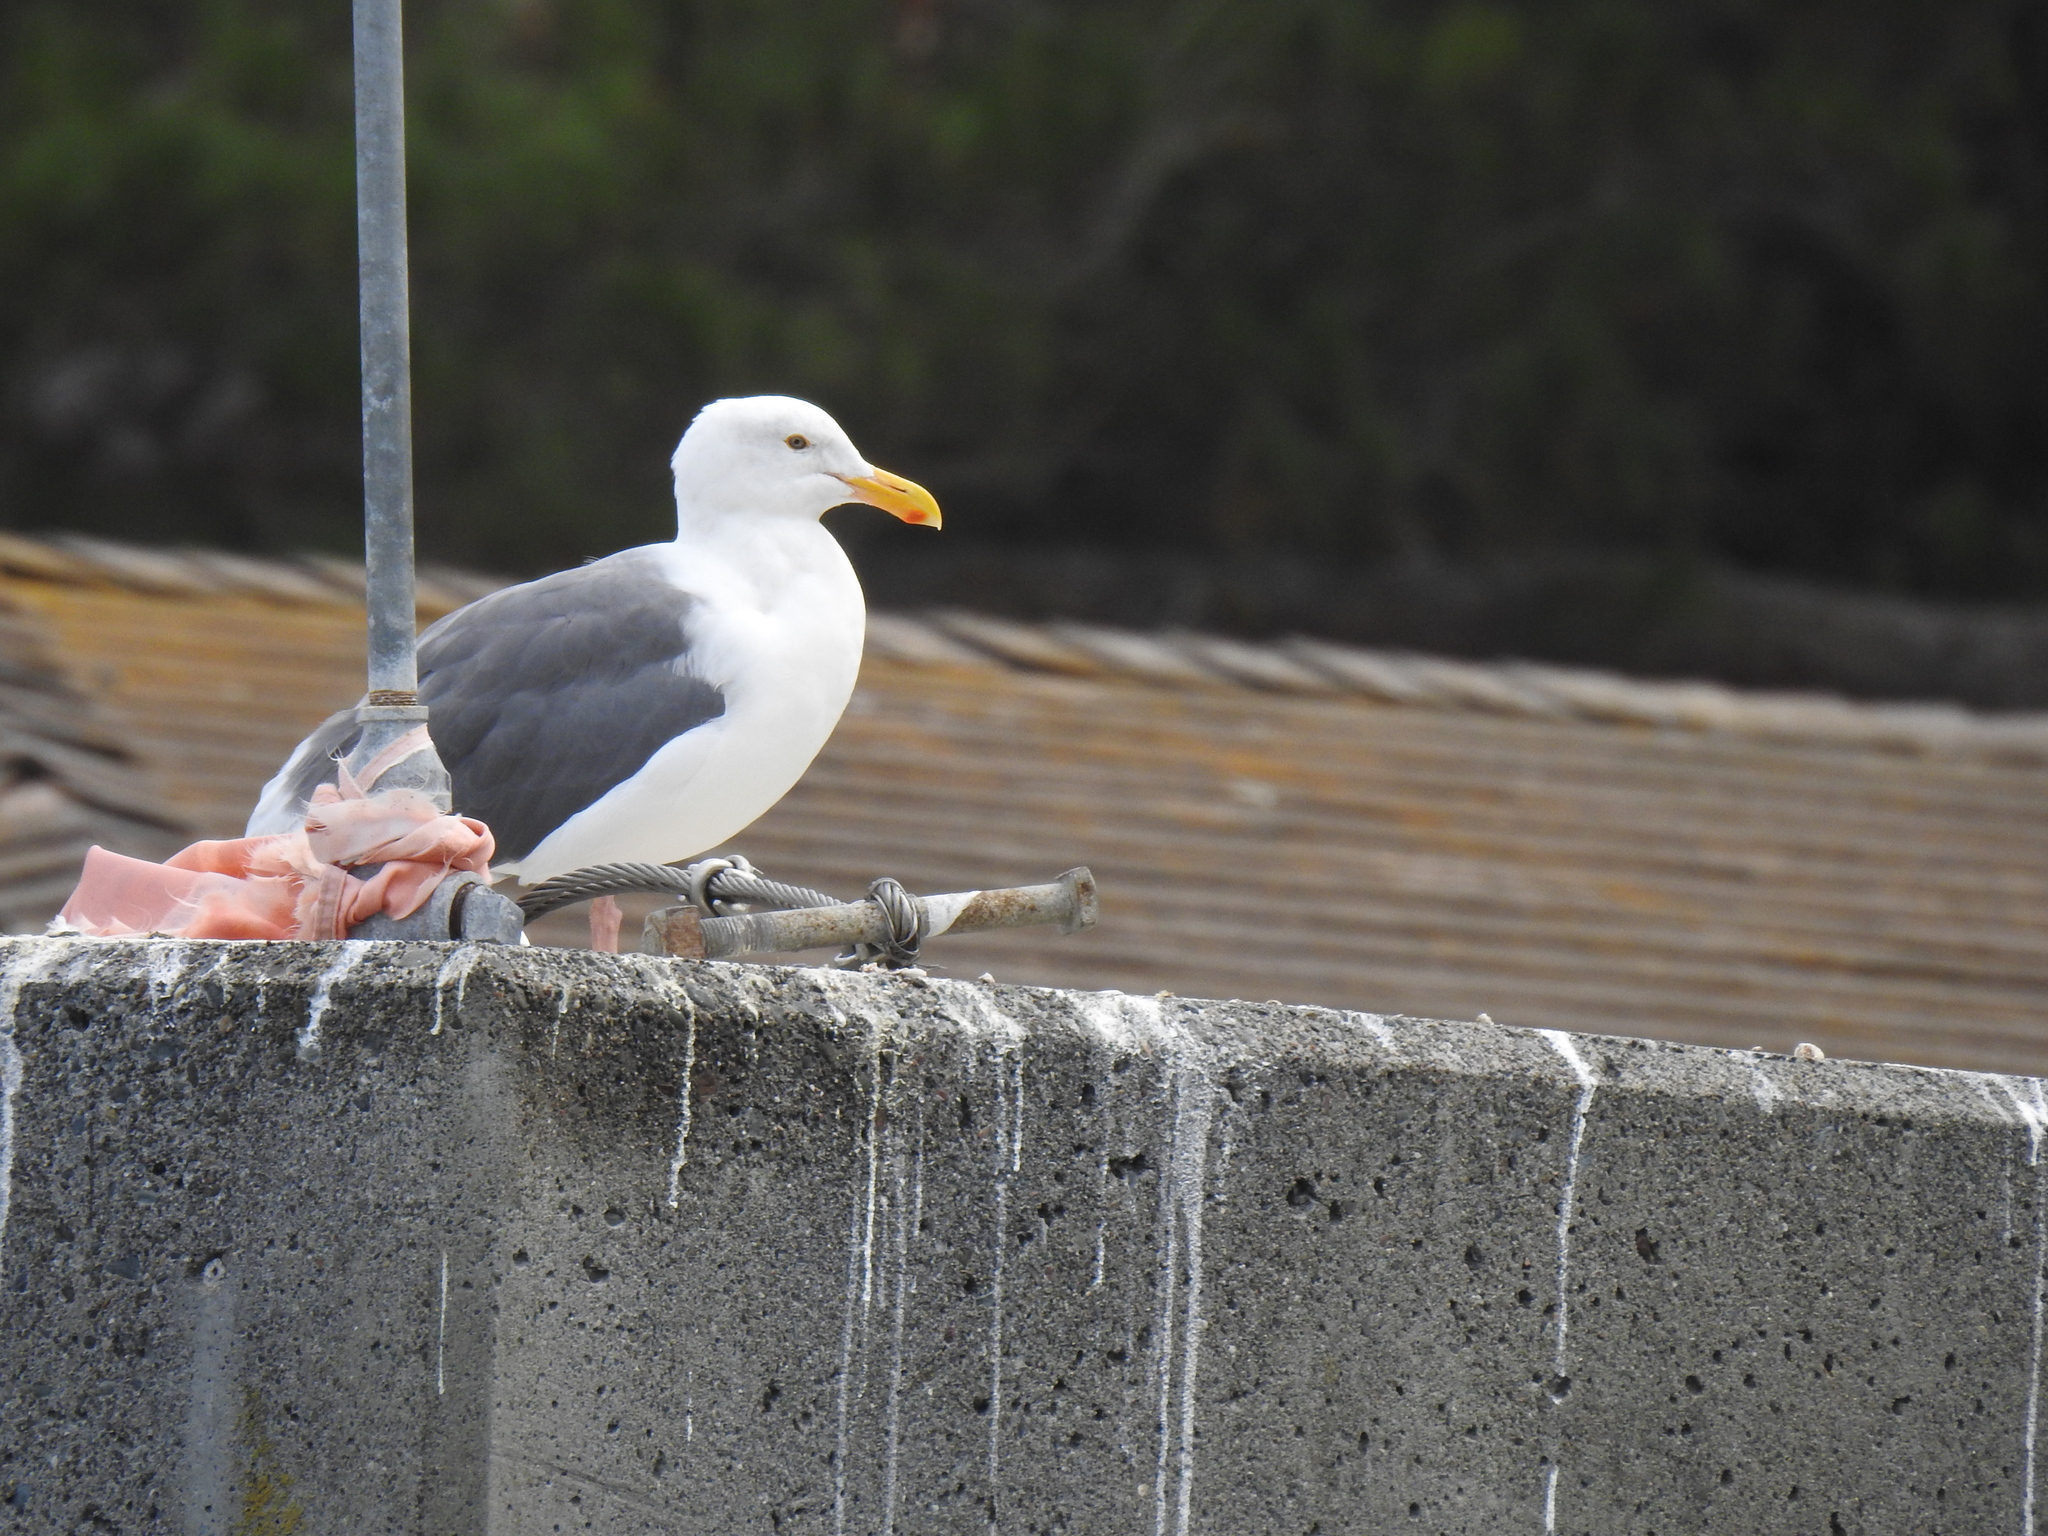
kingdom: Animalia
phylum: Chordata
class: Aves
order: Charadriiformes
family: Laridae
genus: Larus
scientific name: Larus occidentalis
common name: Western gull
